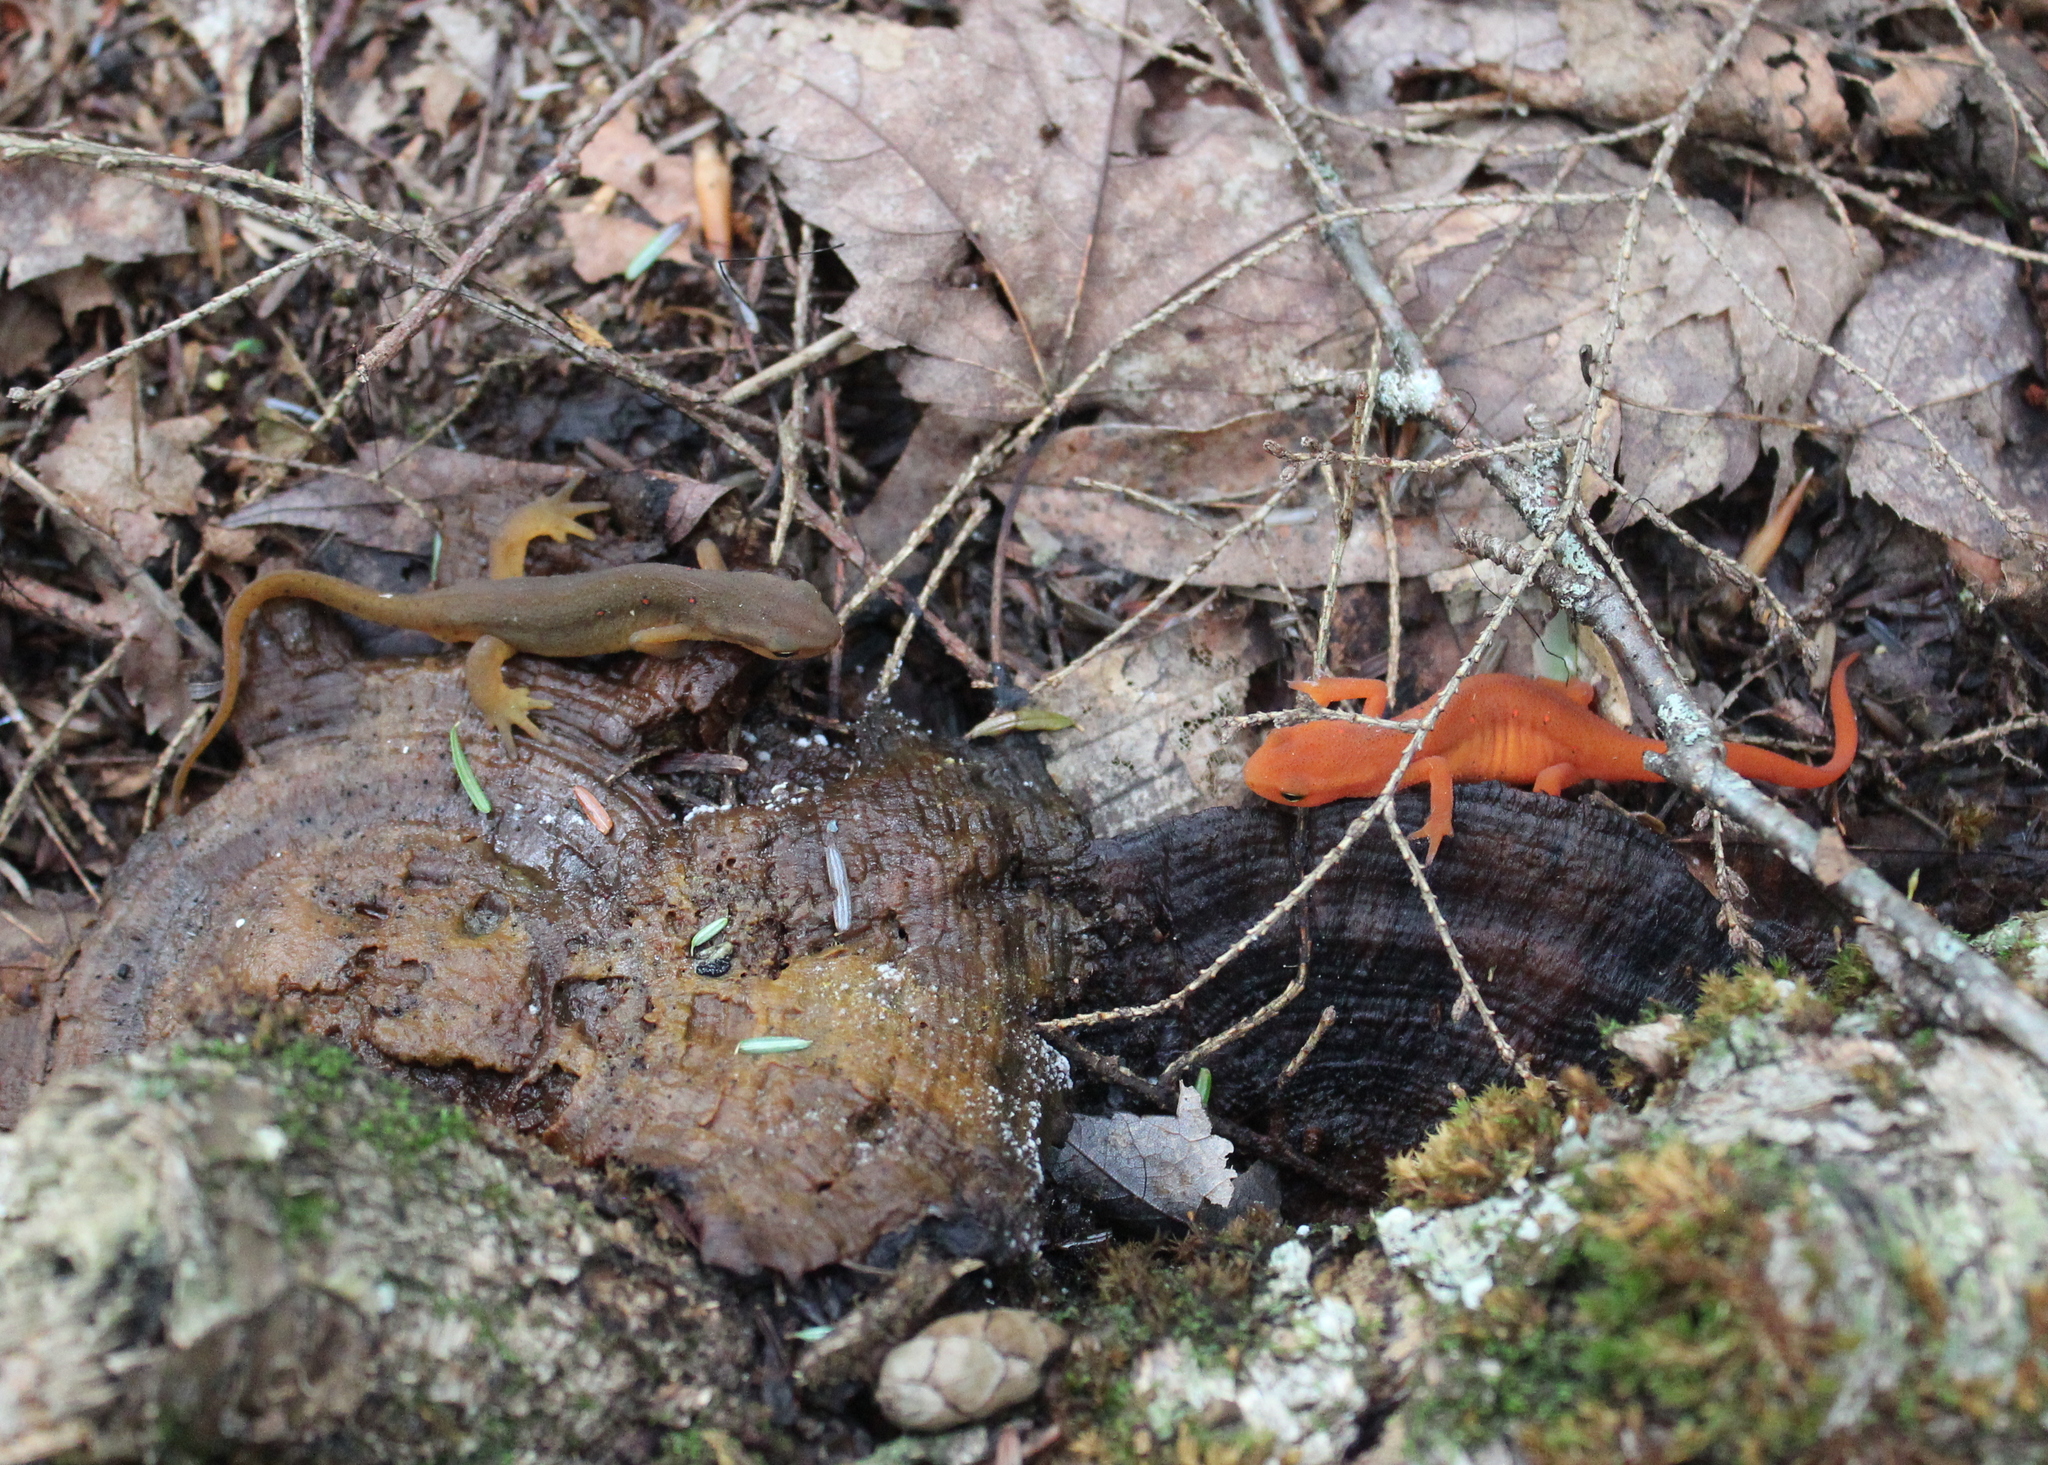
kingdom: Animalia
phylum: Chordata
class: Amphibia
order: Caudata
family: Salamandridae
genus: Notophthalmus
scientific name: Notophthalmus viridescens
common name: Eastern newt
